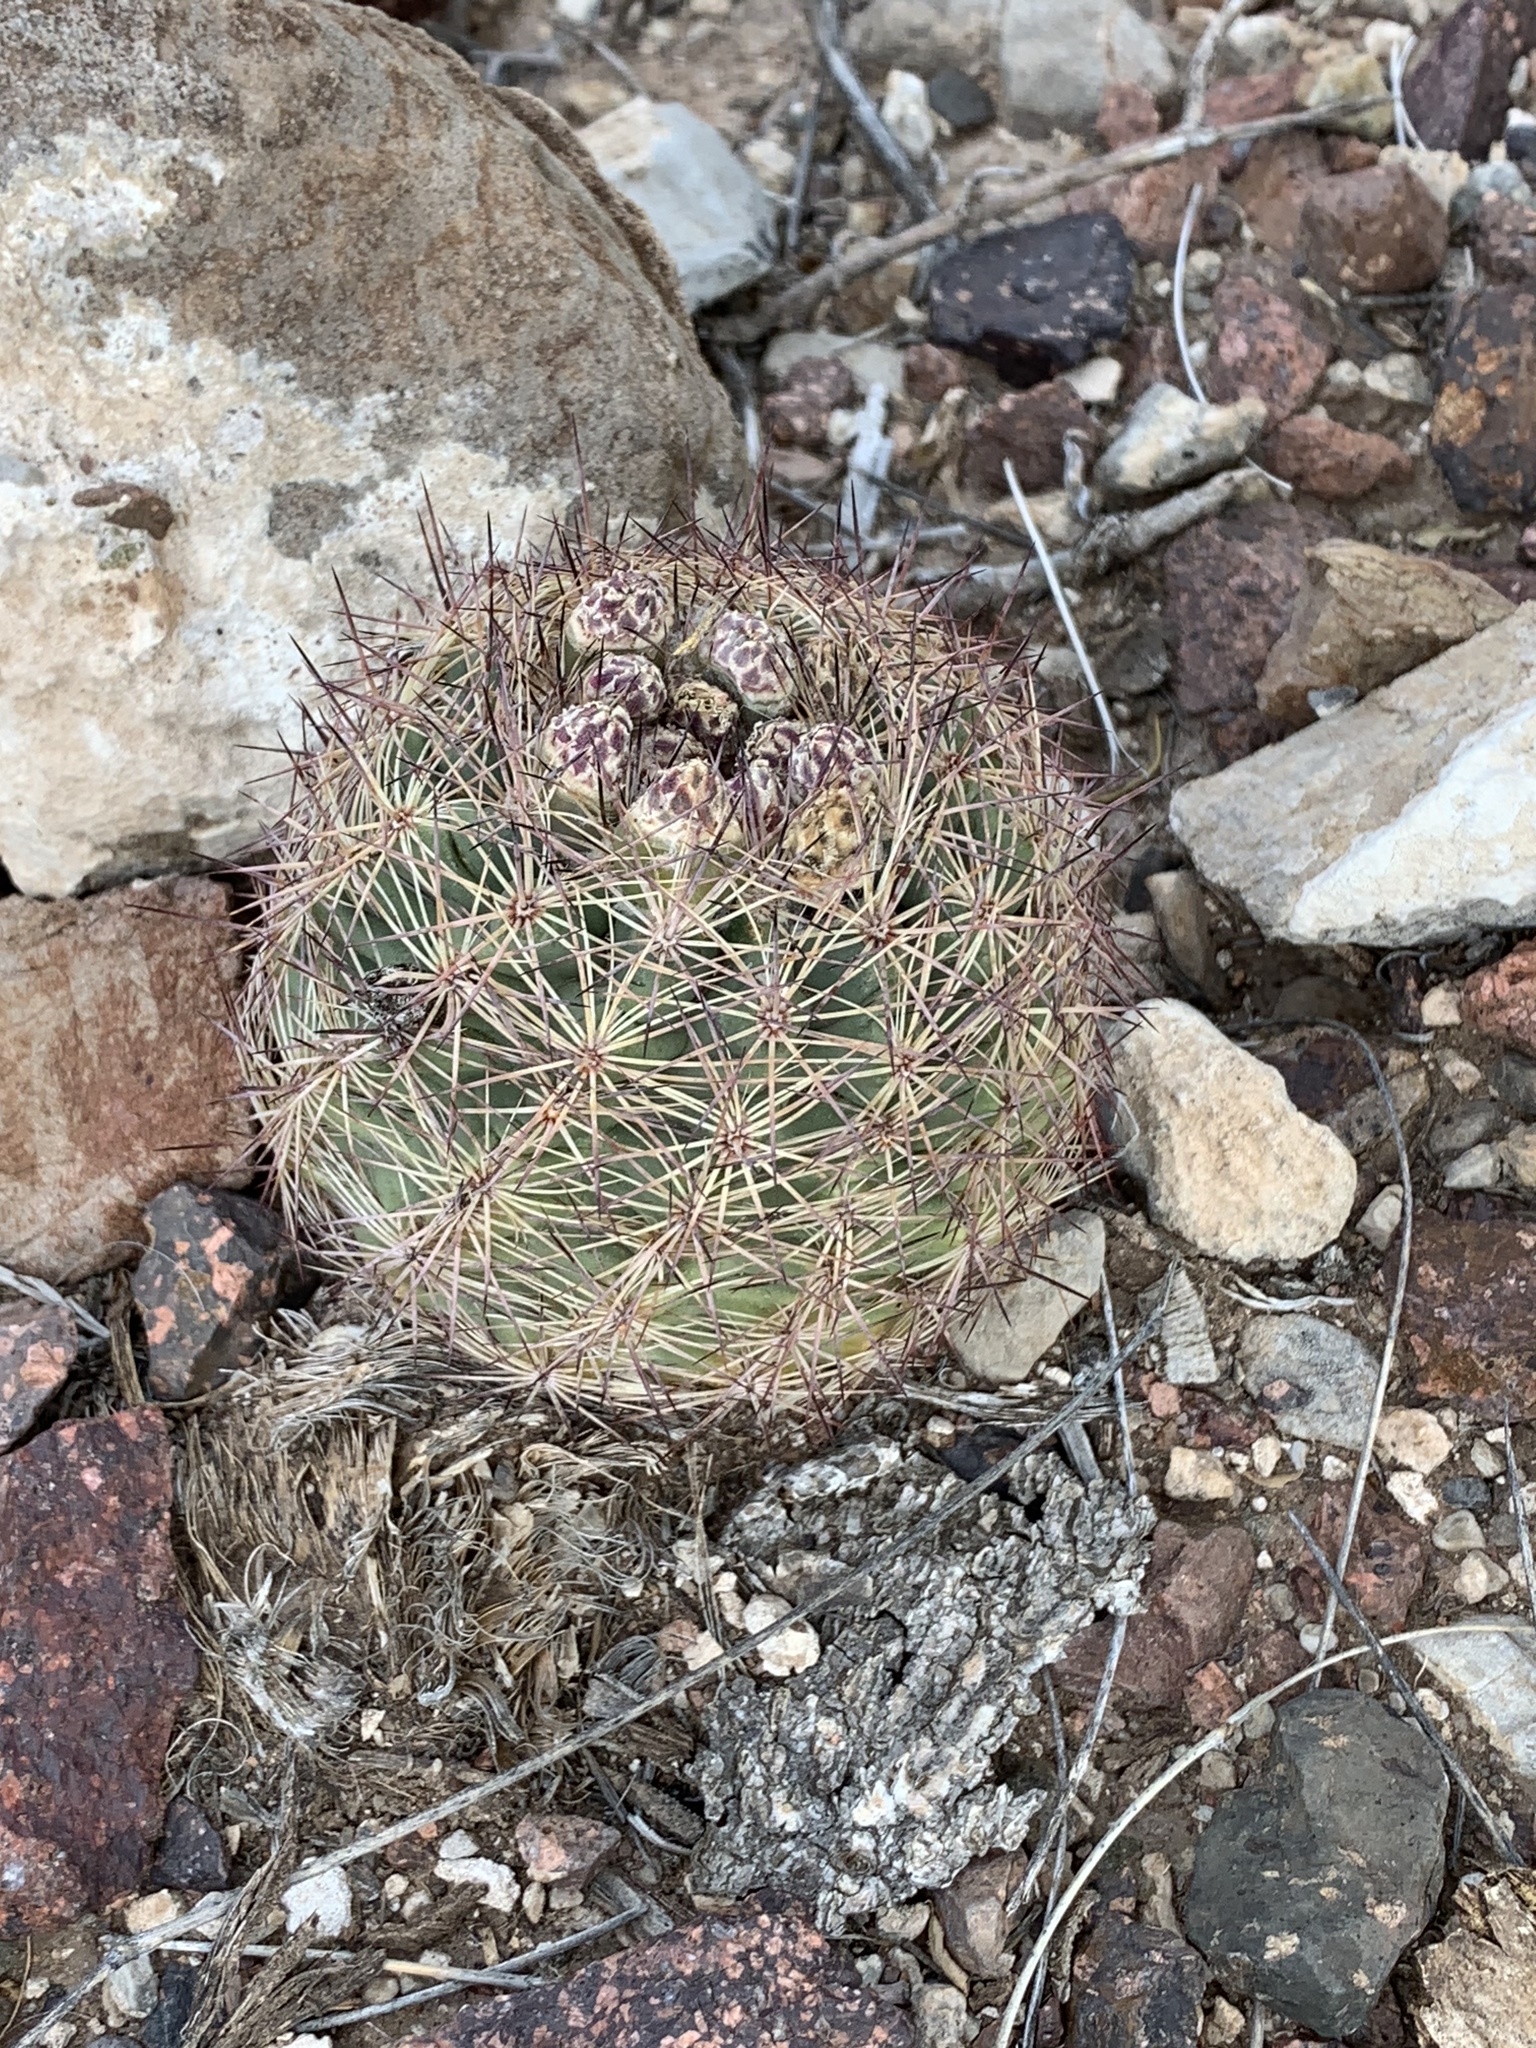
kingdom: Plantae
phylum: Tracheophyta
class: Magnoliopsida
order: Caryophyllales
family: Cactaceae
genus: Sclerocactus
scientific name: Sclerocactus intertextus
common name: White fish-hook cactus
